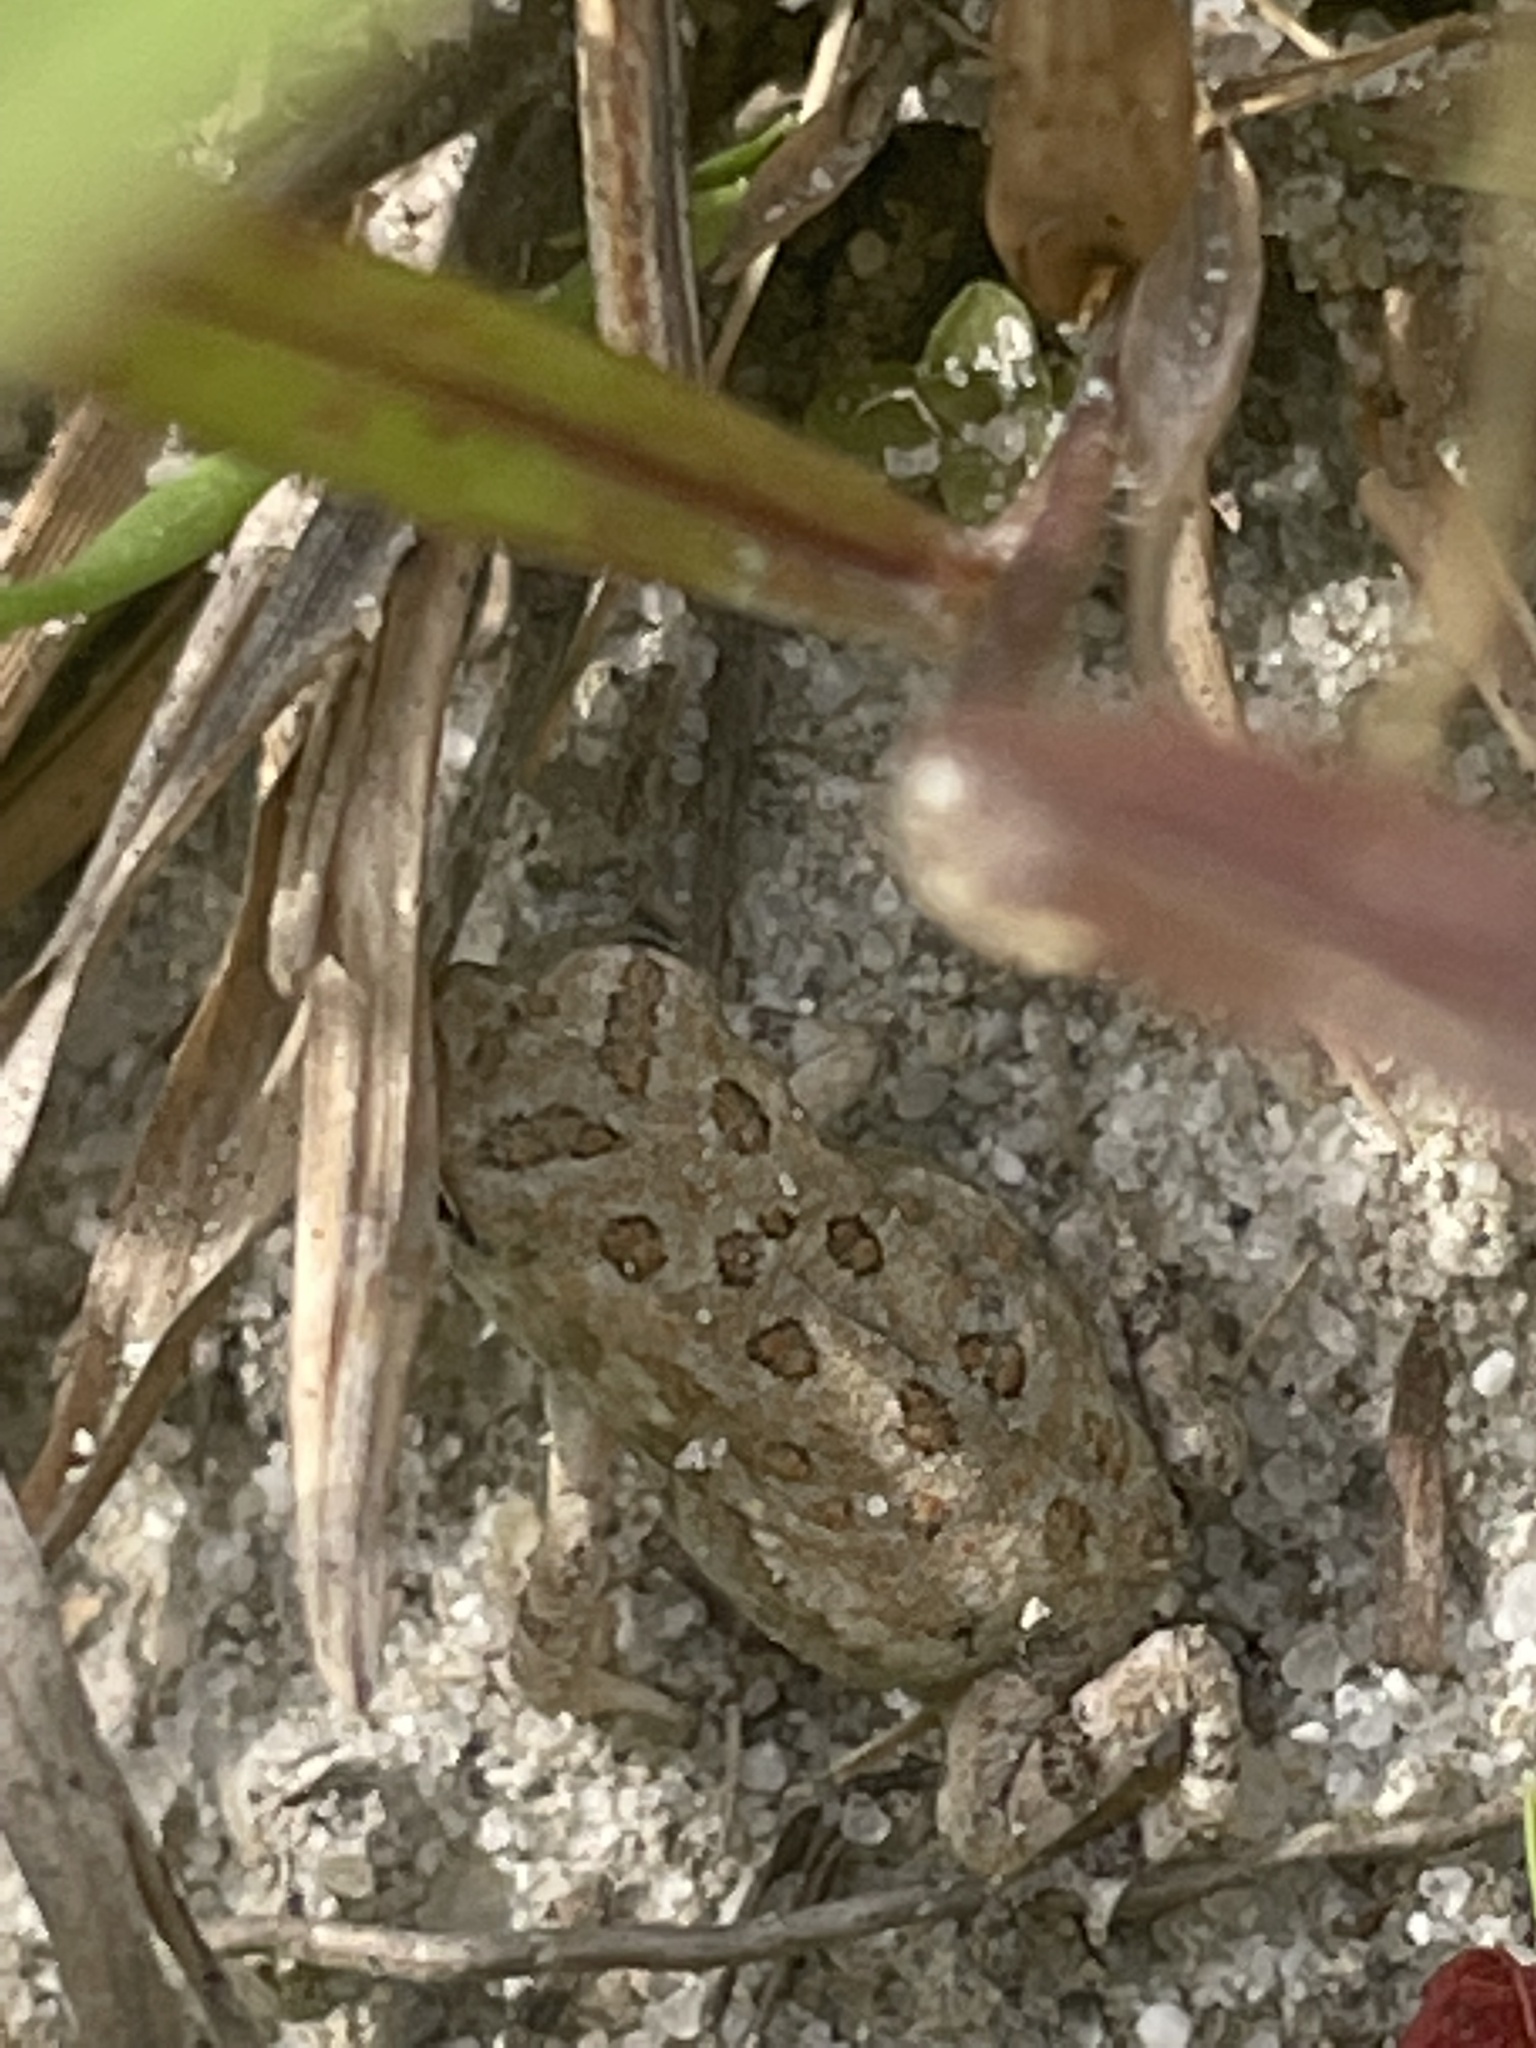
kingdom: Animalia
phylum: Chordata
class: Amphibia
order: Anura
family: Bufonidae
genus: Anaxyrus
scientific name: Anaxyrus fowleri
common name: Fowler's toad
